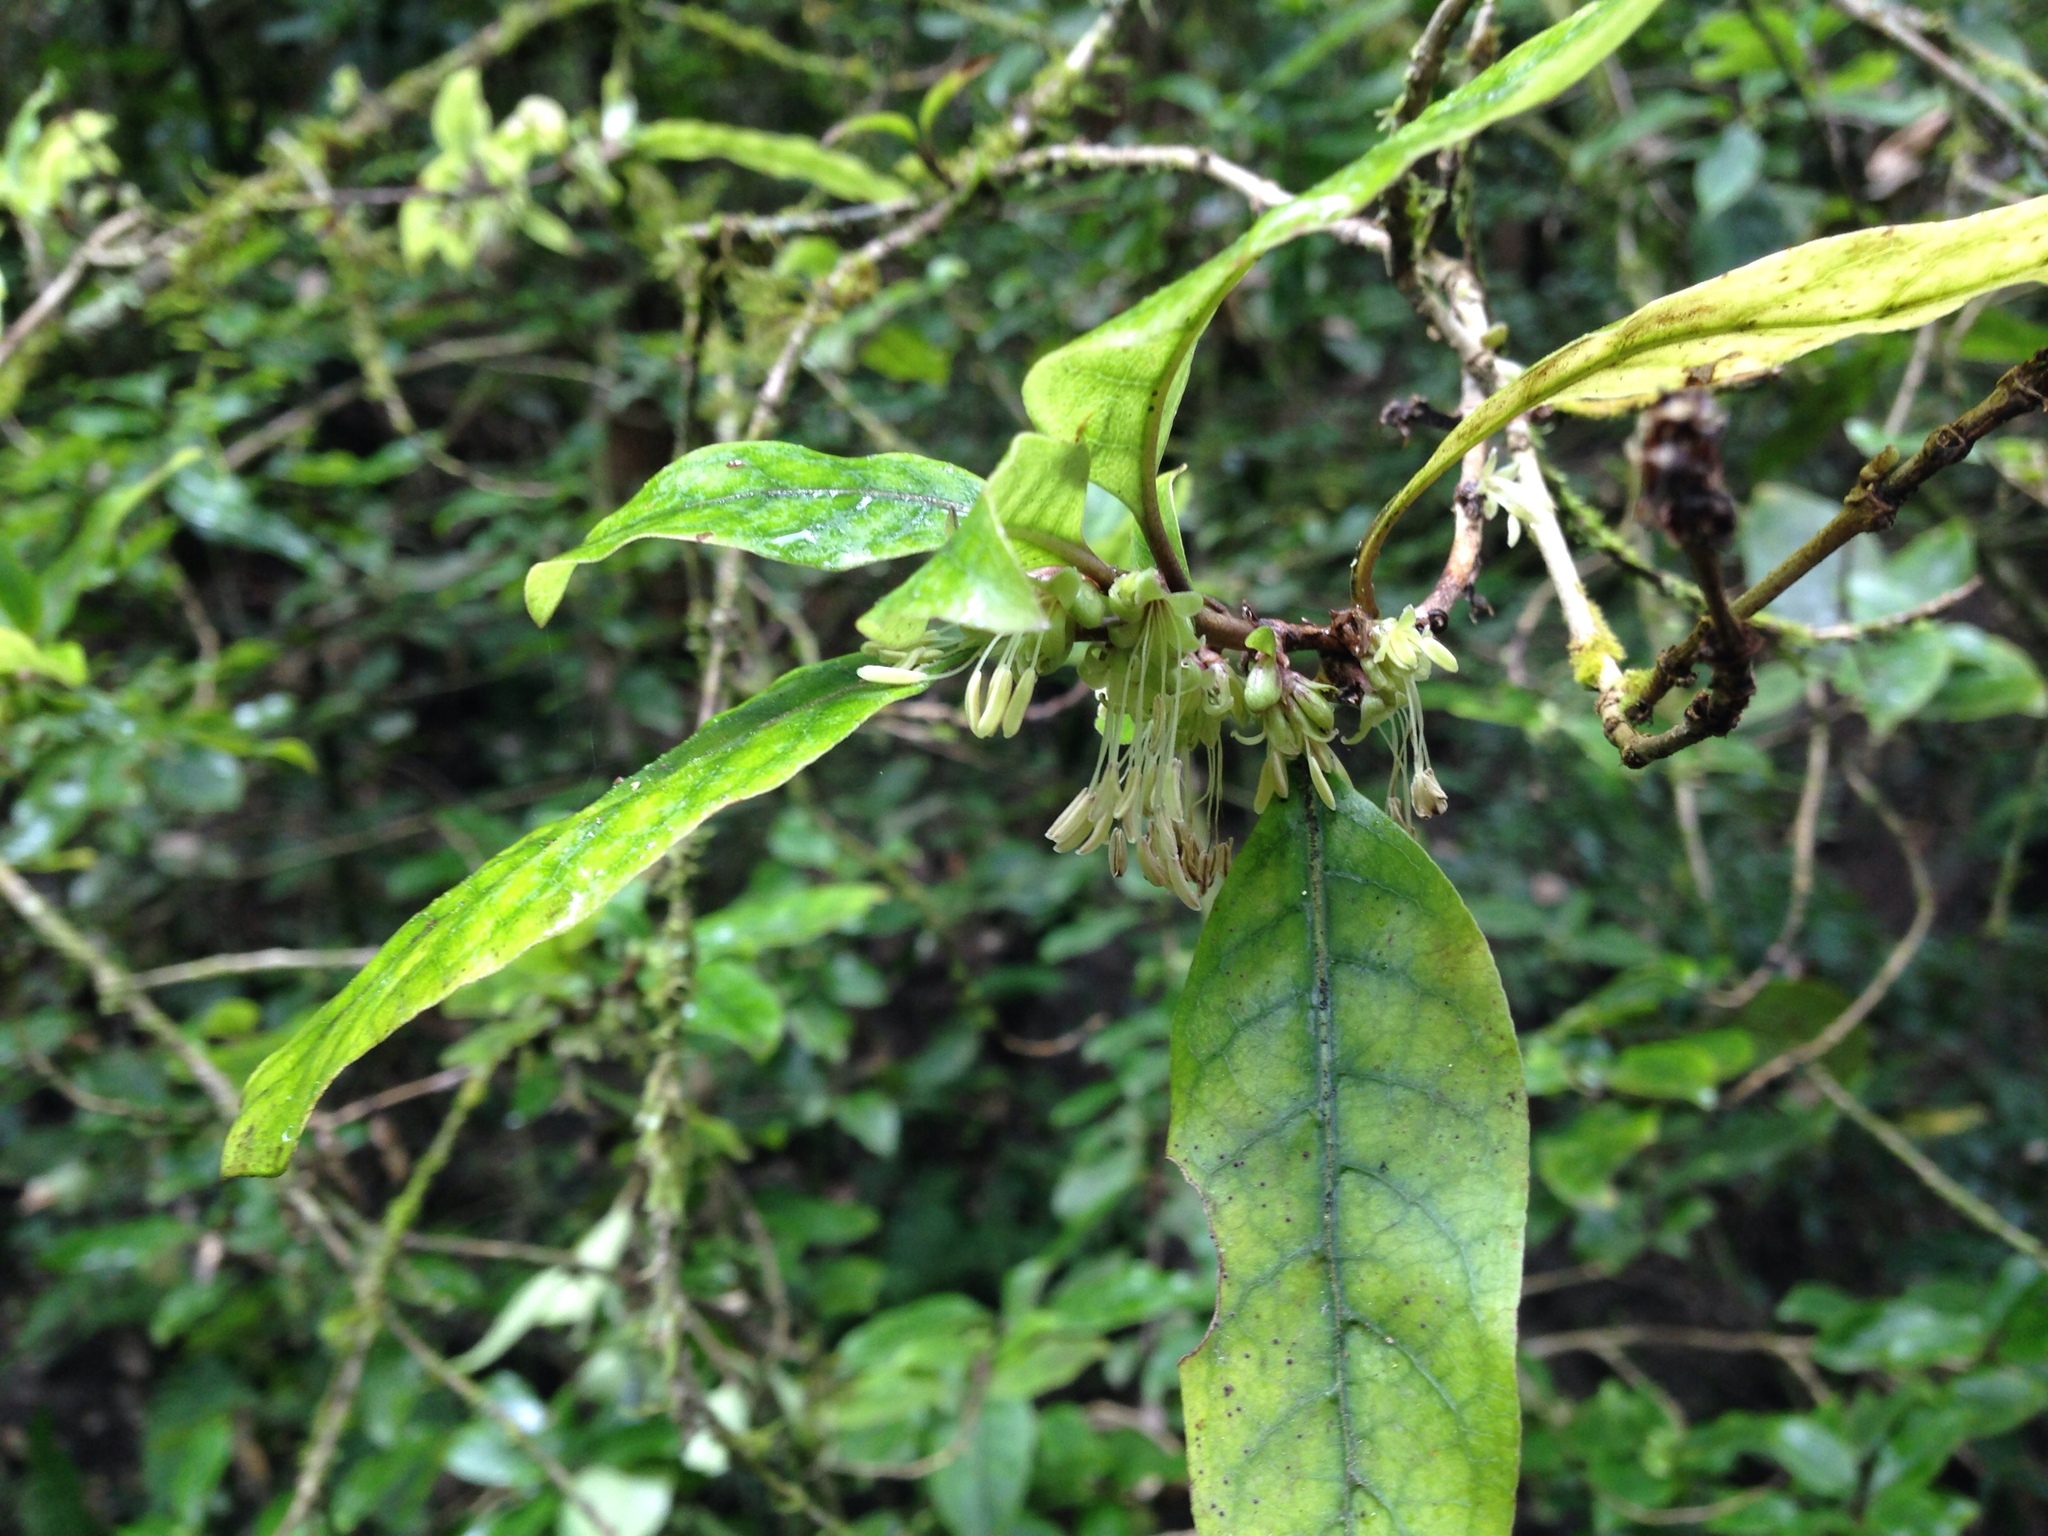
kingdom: Plantae
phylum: Tracheophyta
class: Magnoliopsida
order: Gentianales
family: Rubiaceae
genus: Coprosma
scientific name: Coprosma tenuifolia
